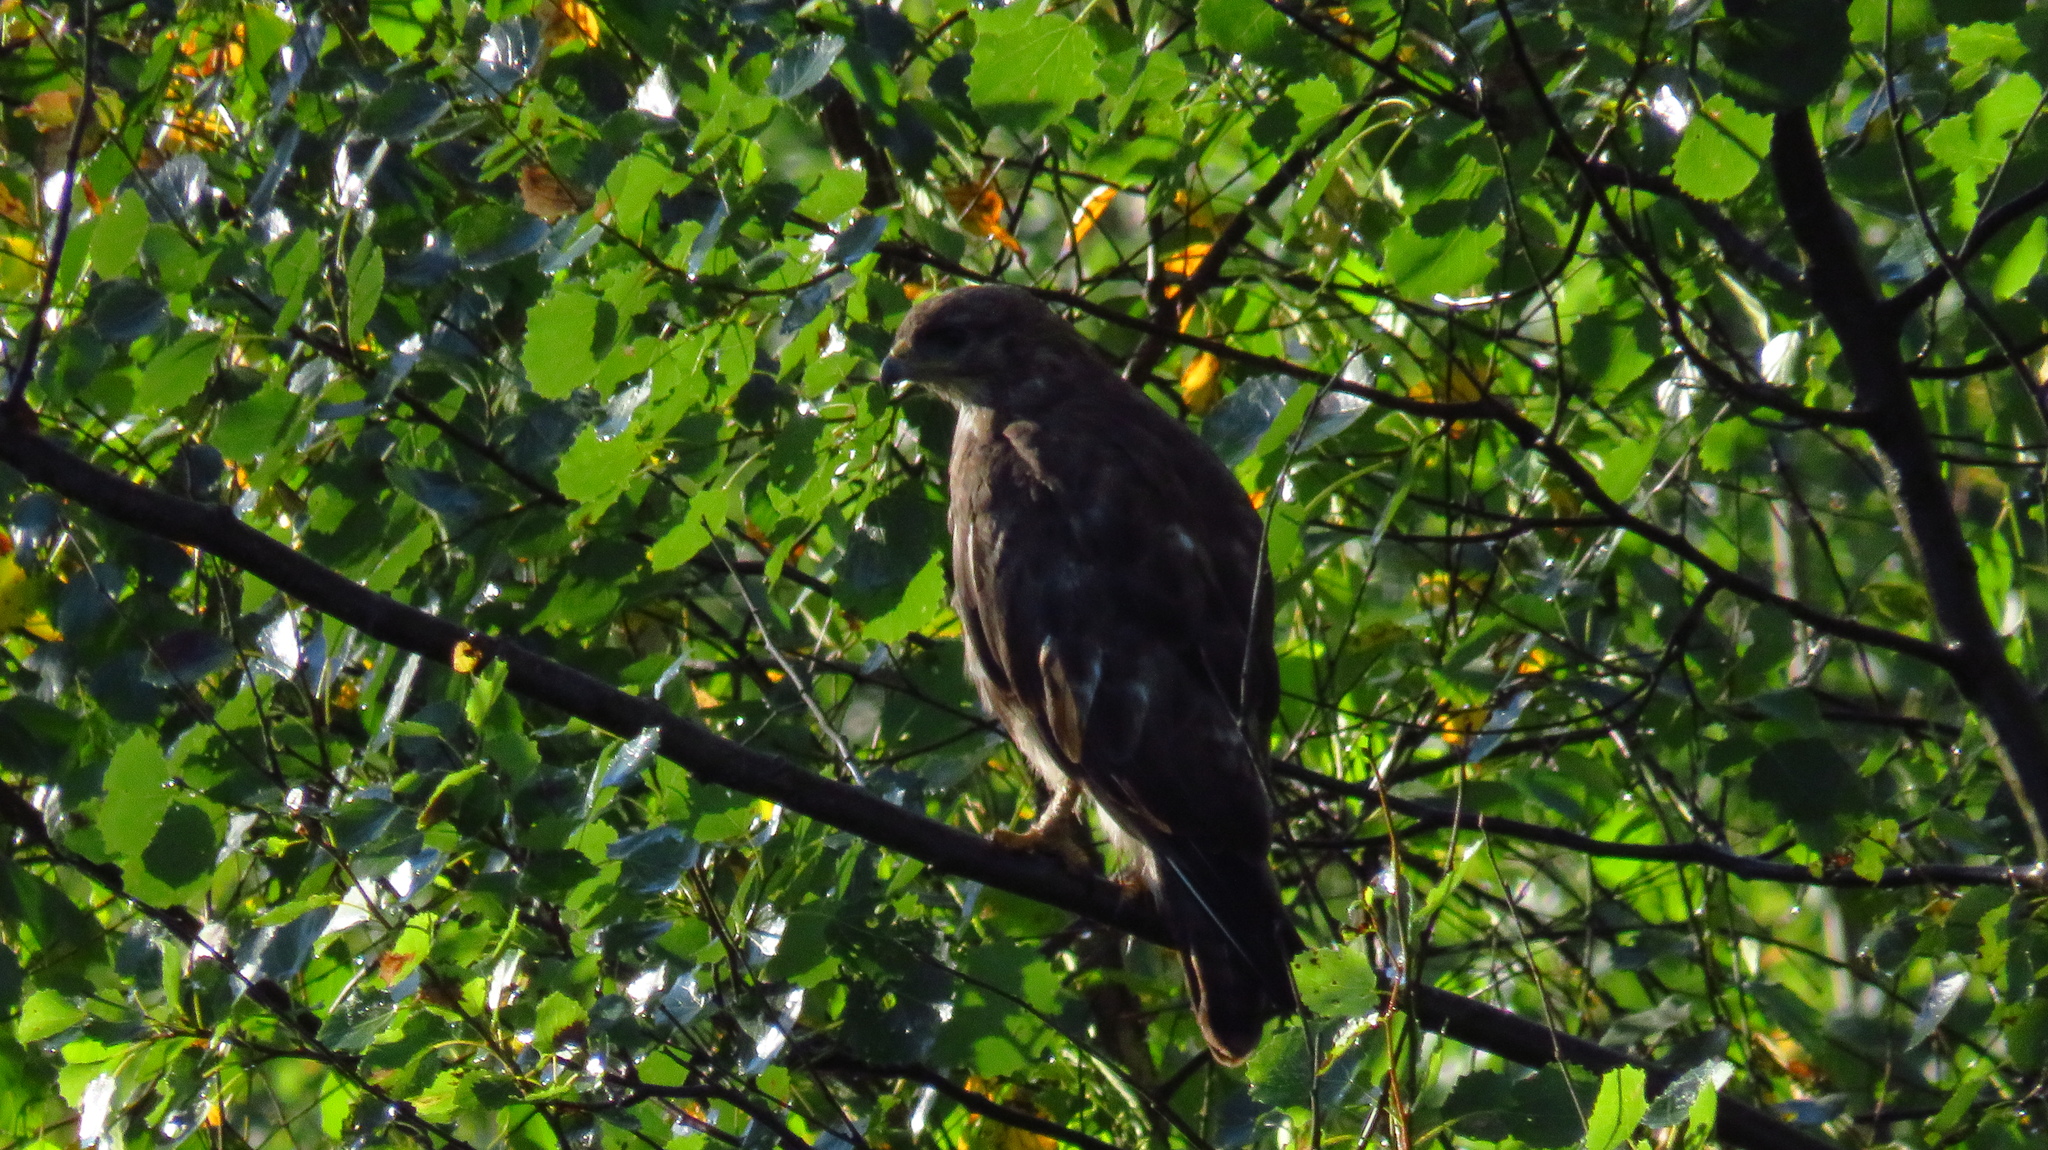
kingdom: Animalia
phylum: Chordata
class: Aves
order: Accipitriformes
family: Accipitridae
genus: Buteo
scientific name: Buteo buteo
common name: Common buzzard
